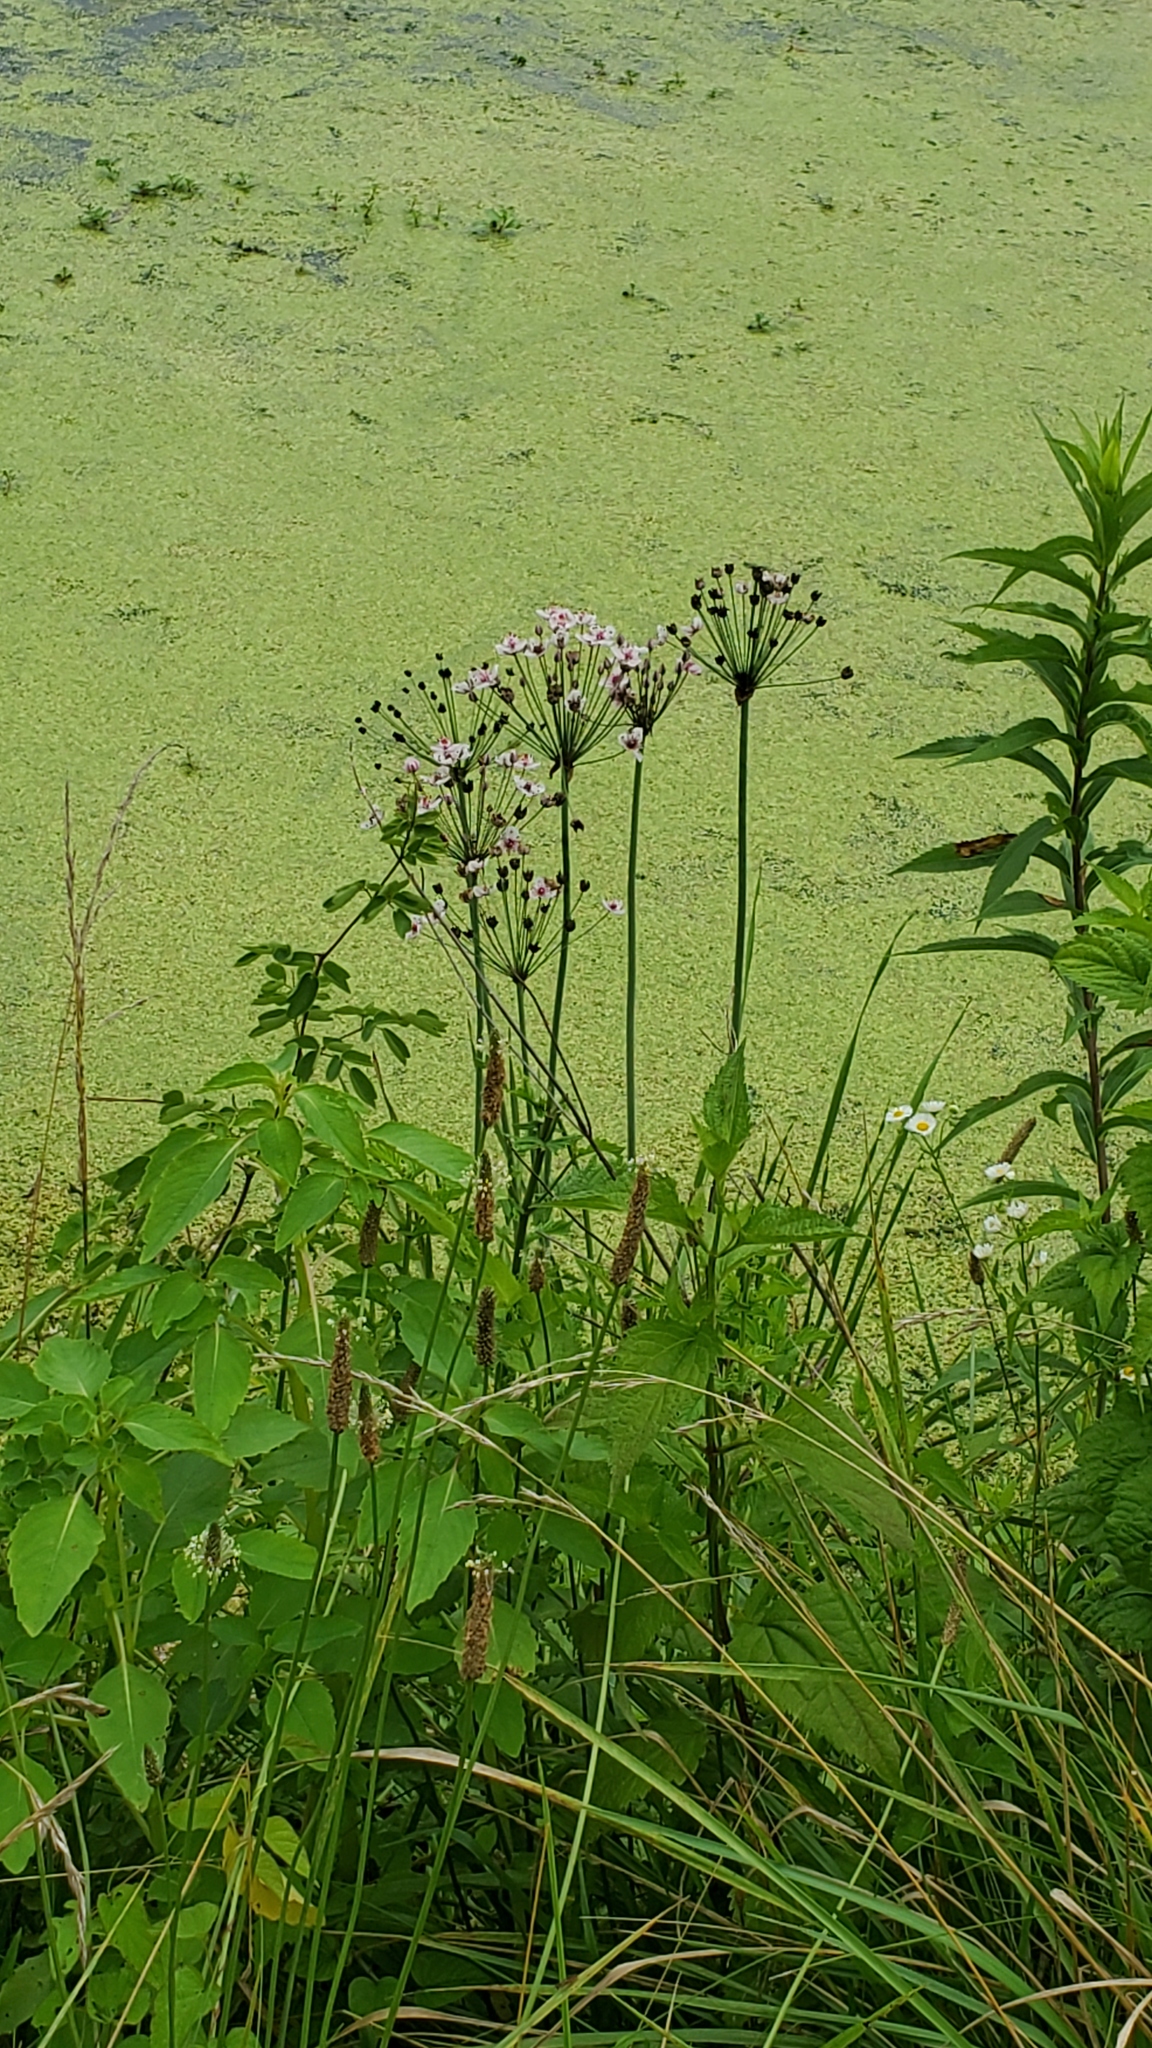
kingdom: Plantae
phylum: Tracheophyta
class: Liliopsida
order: Alismatales
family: Butomaceae
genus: Butomus
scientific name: Butomus umbellatus
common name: Flowering-rush
